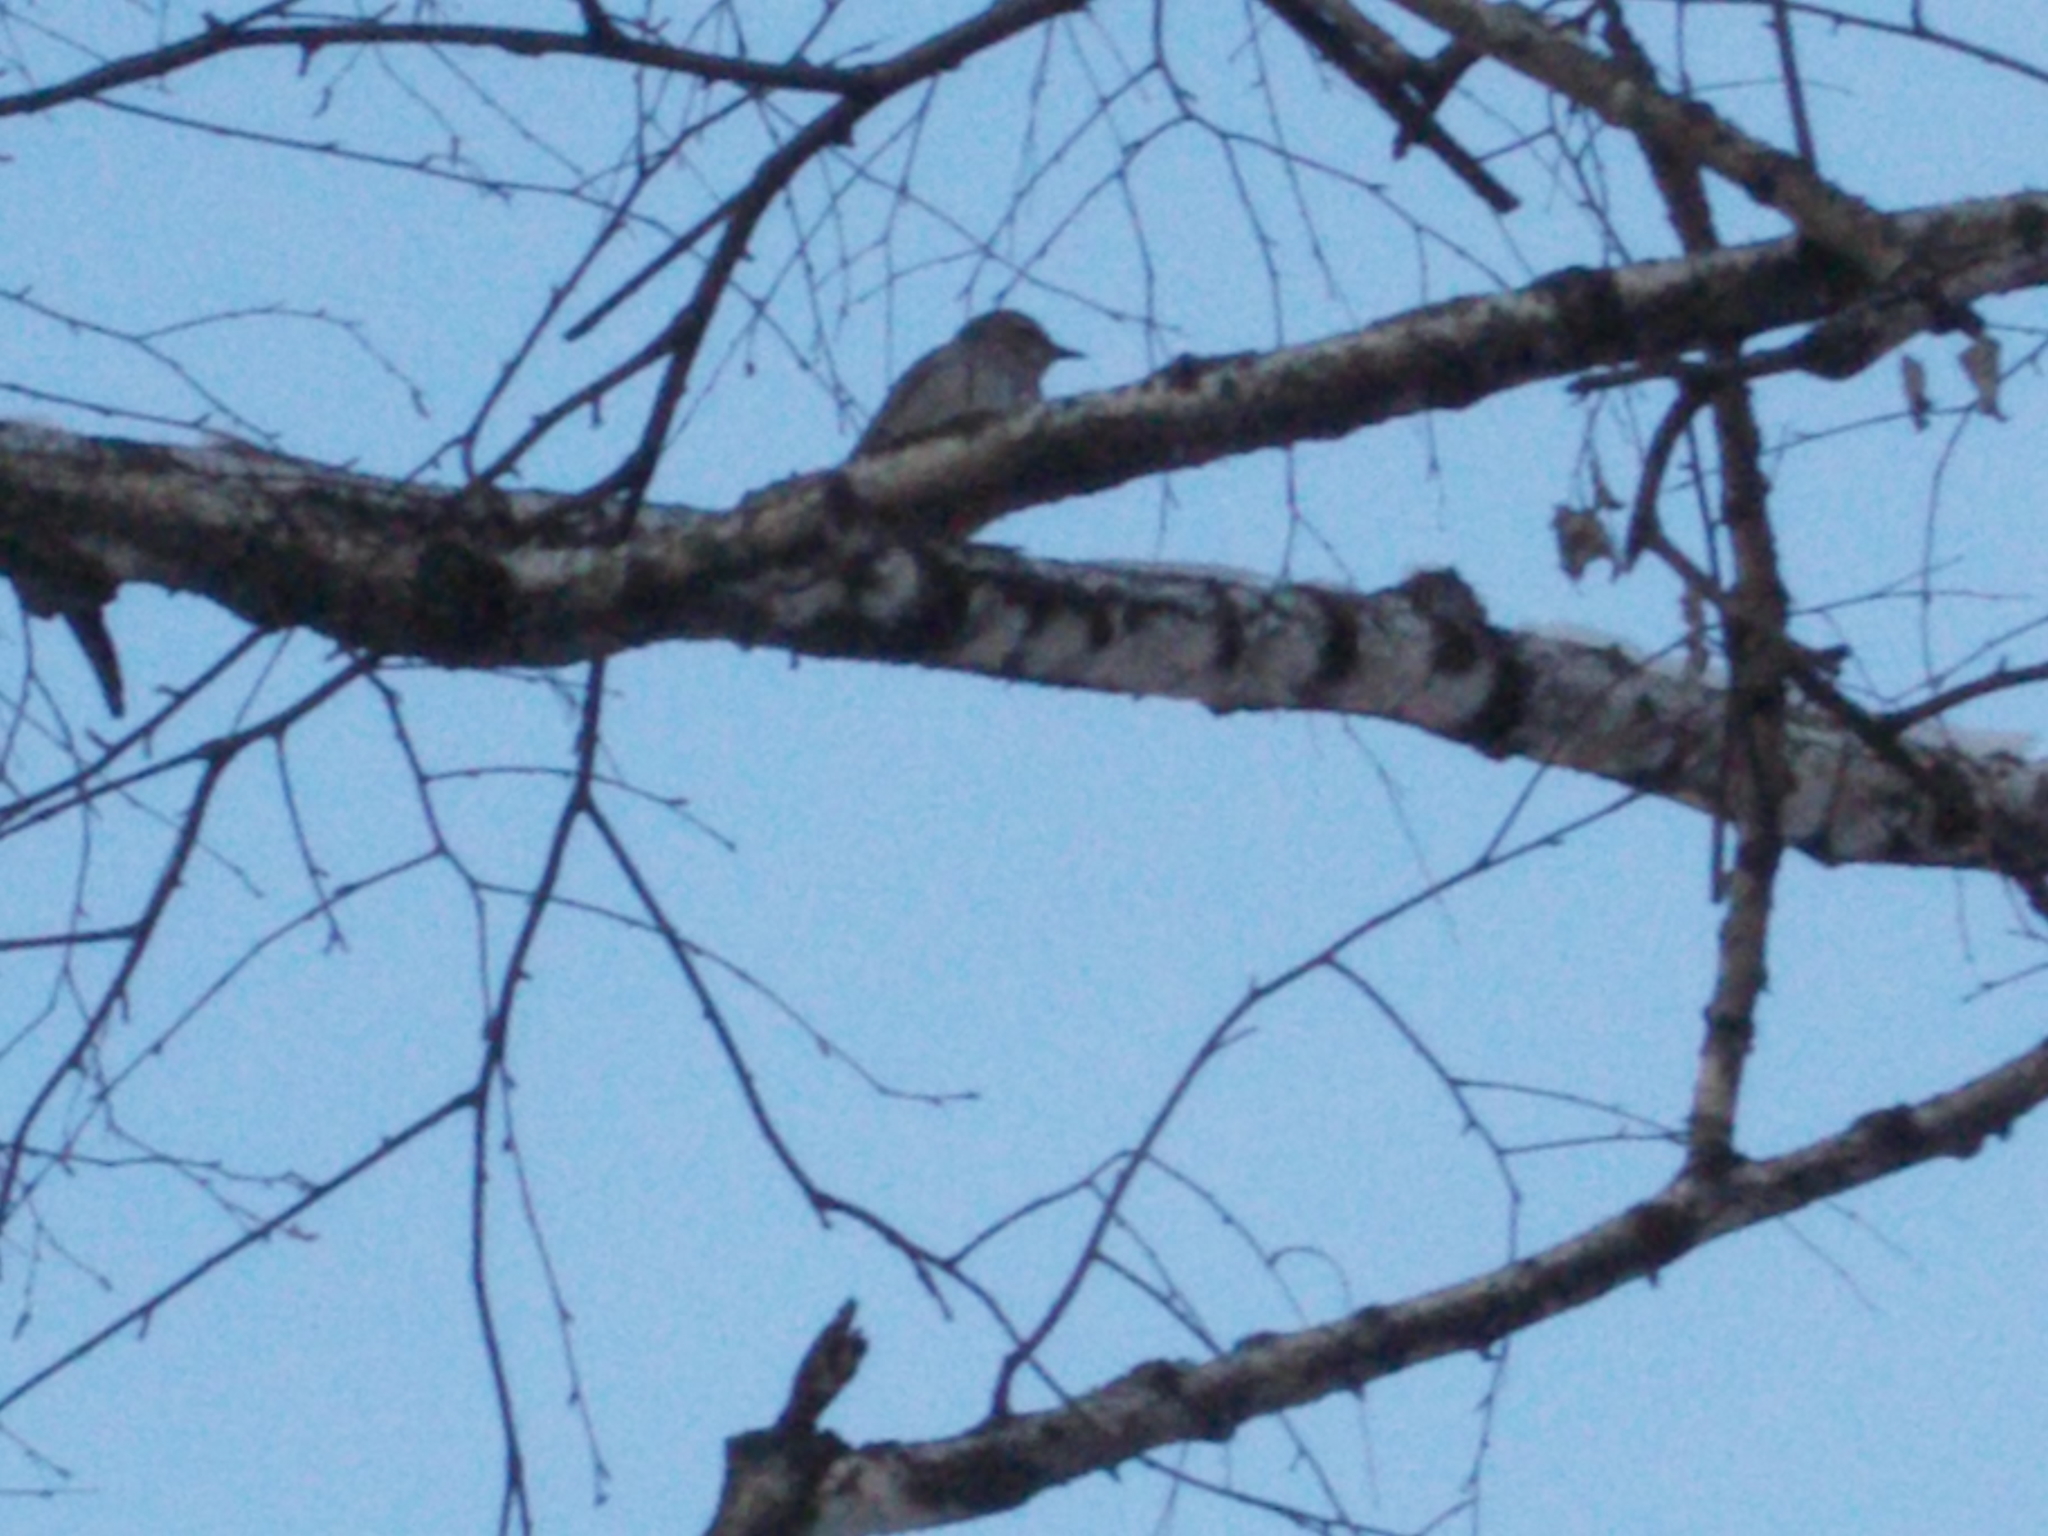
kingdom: Animalia
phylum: Chordata
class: Aves
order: Passeriformes
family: Turdidae
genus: Turdus
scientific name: Turdus atrogularis
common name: Black-throated thrush
